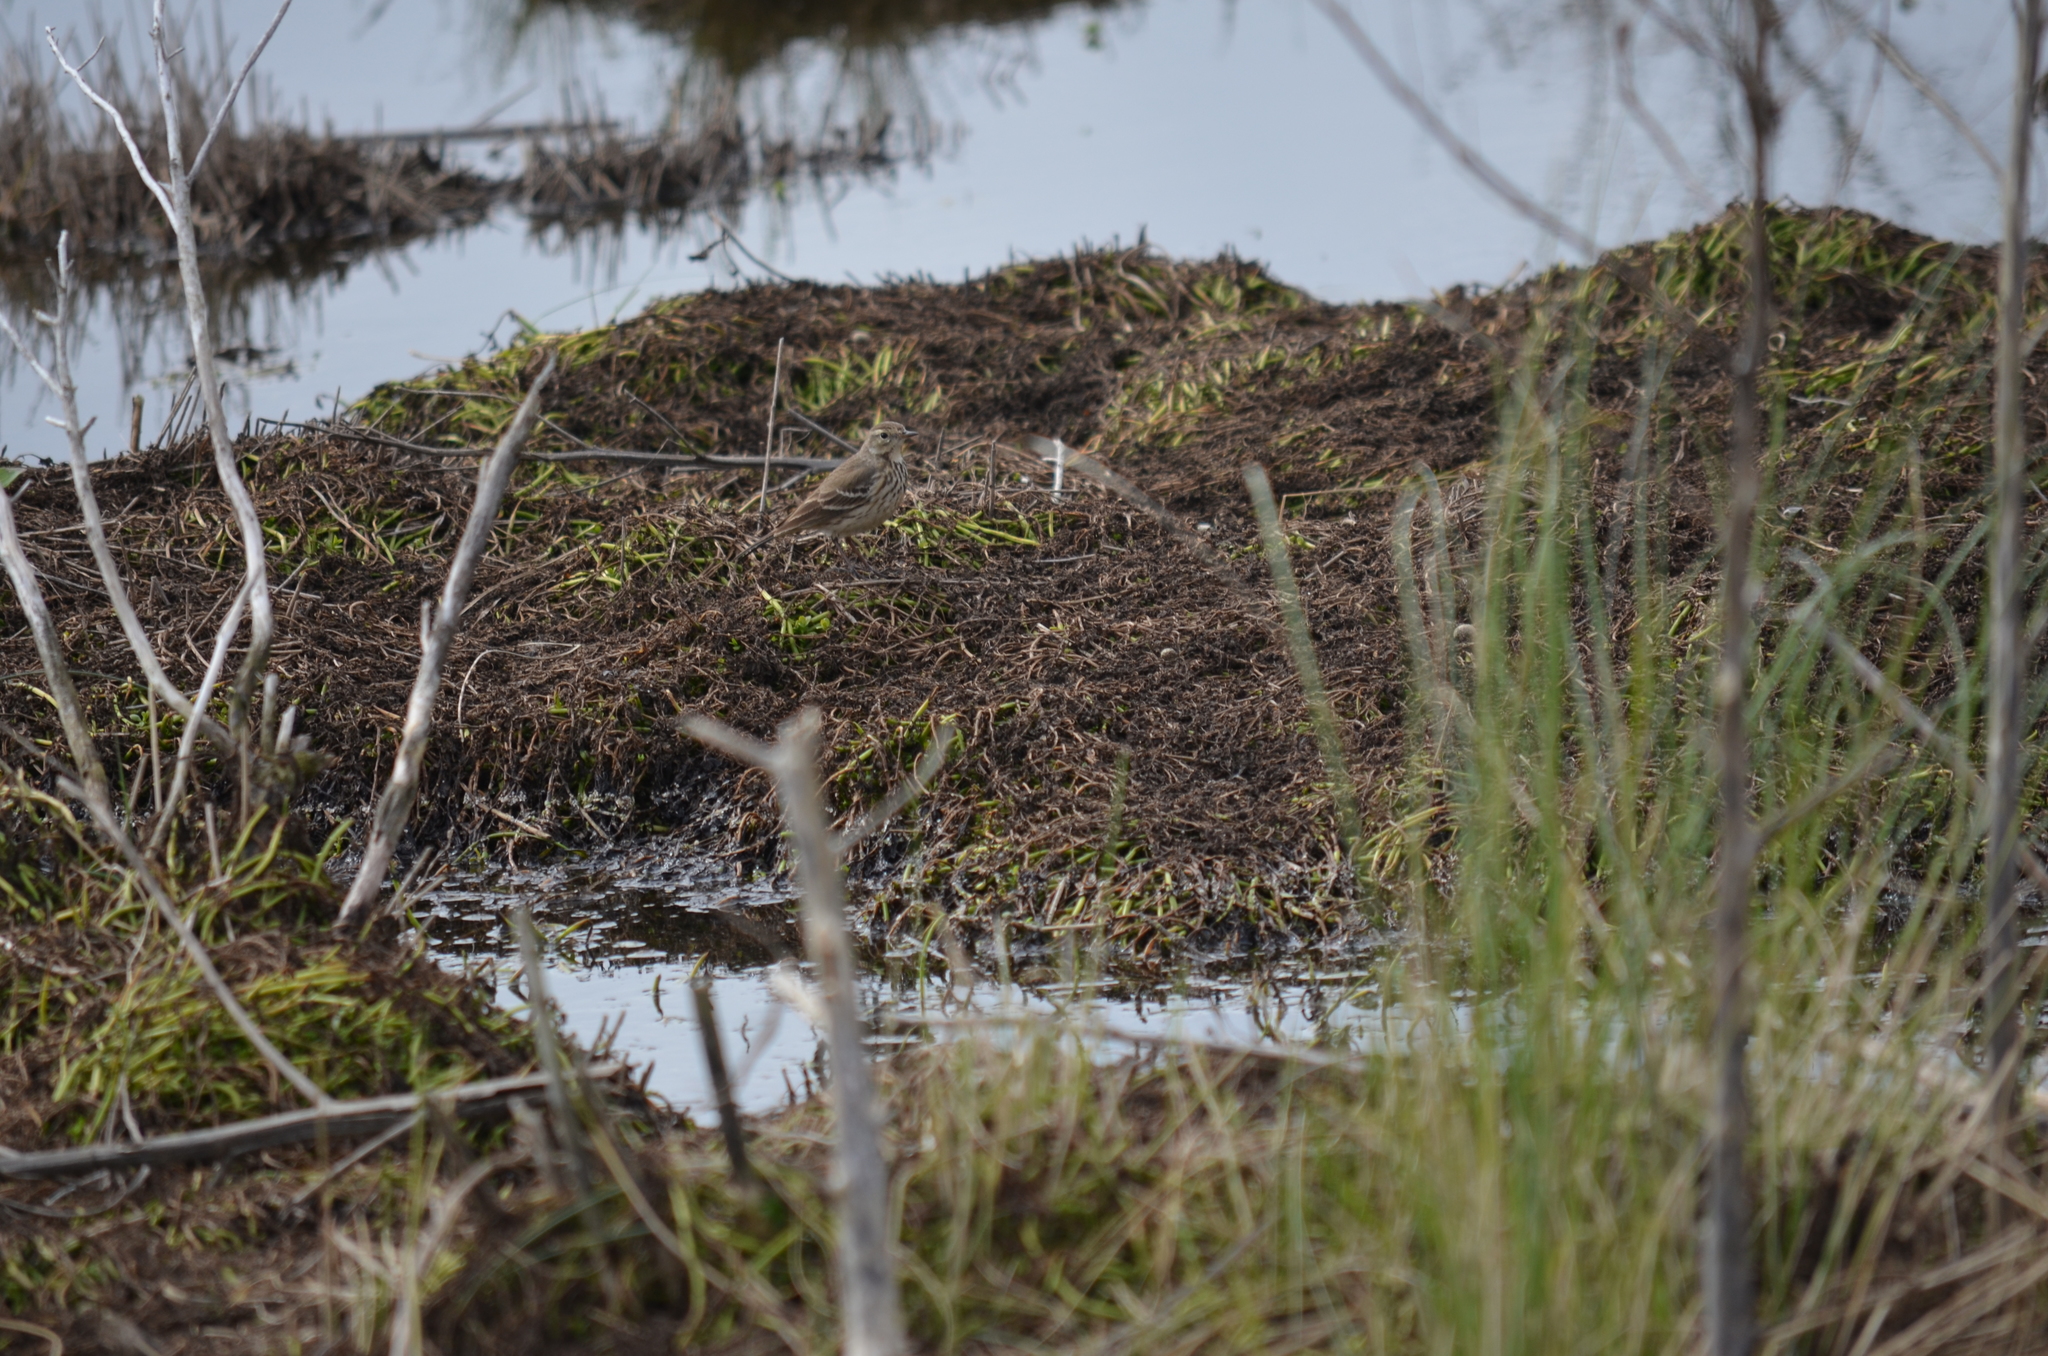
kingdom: Animalia
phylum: Chordata
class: Aves
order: Passeriformes
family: Motacillidae
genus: Anthus
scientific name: Anthus rubescens
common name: Buff-bellied pipit
